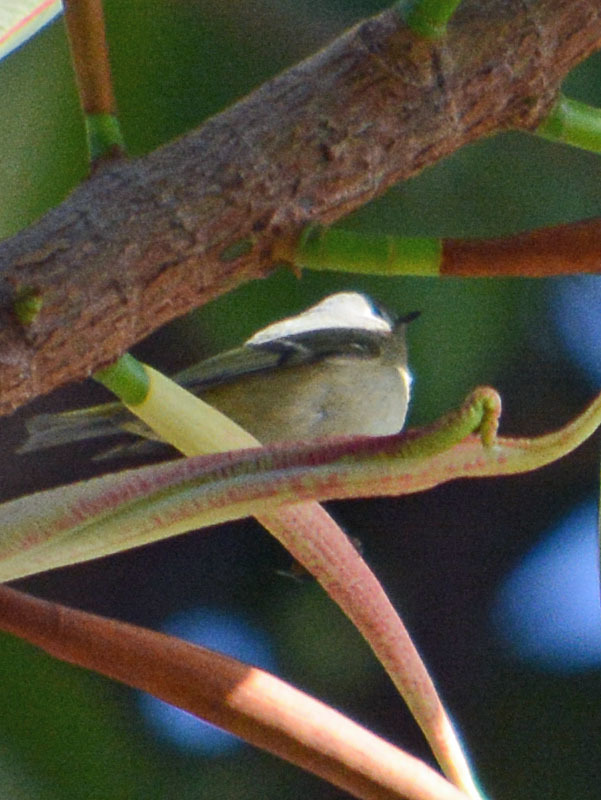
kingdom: Animalia
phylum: Chordata
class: Aves
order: Passeriformes
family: Regulidae
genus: Regulus
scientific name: Regulus calendula
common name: Ruby-crowned kinglet
